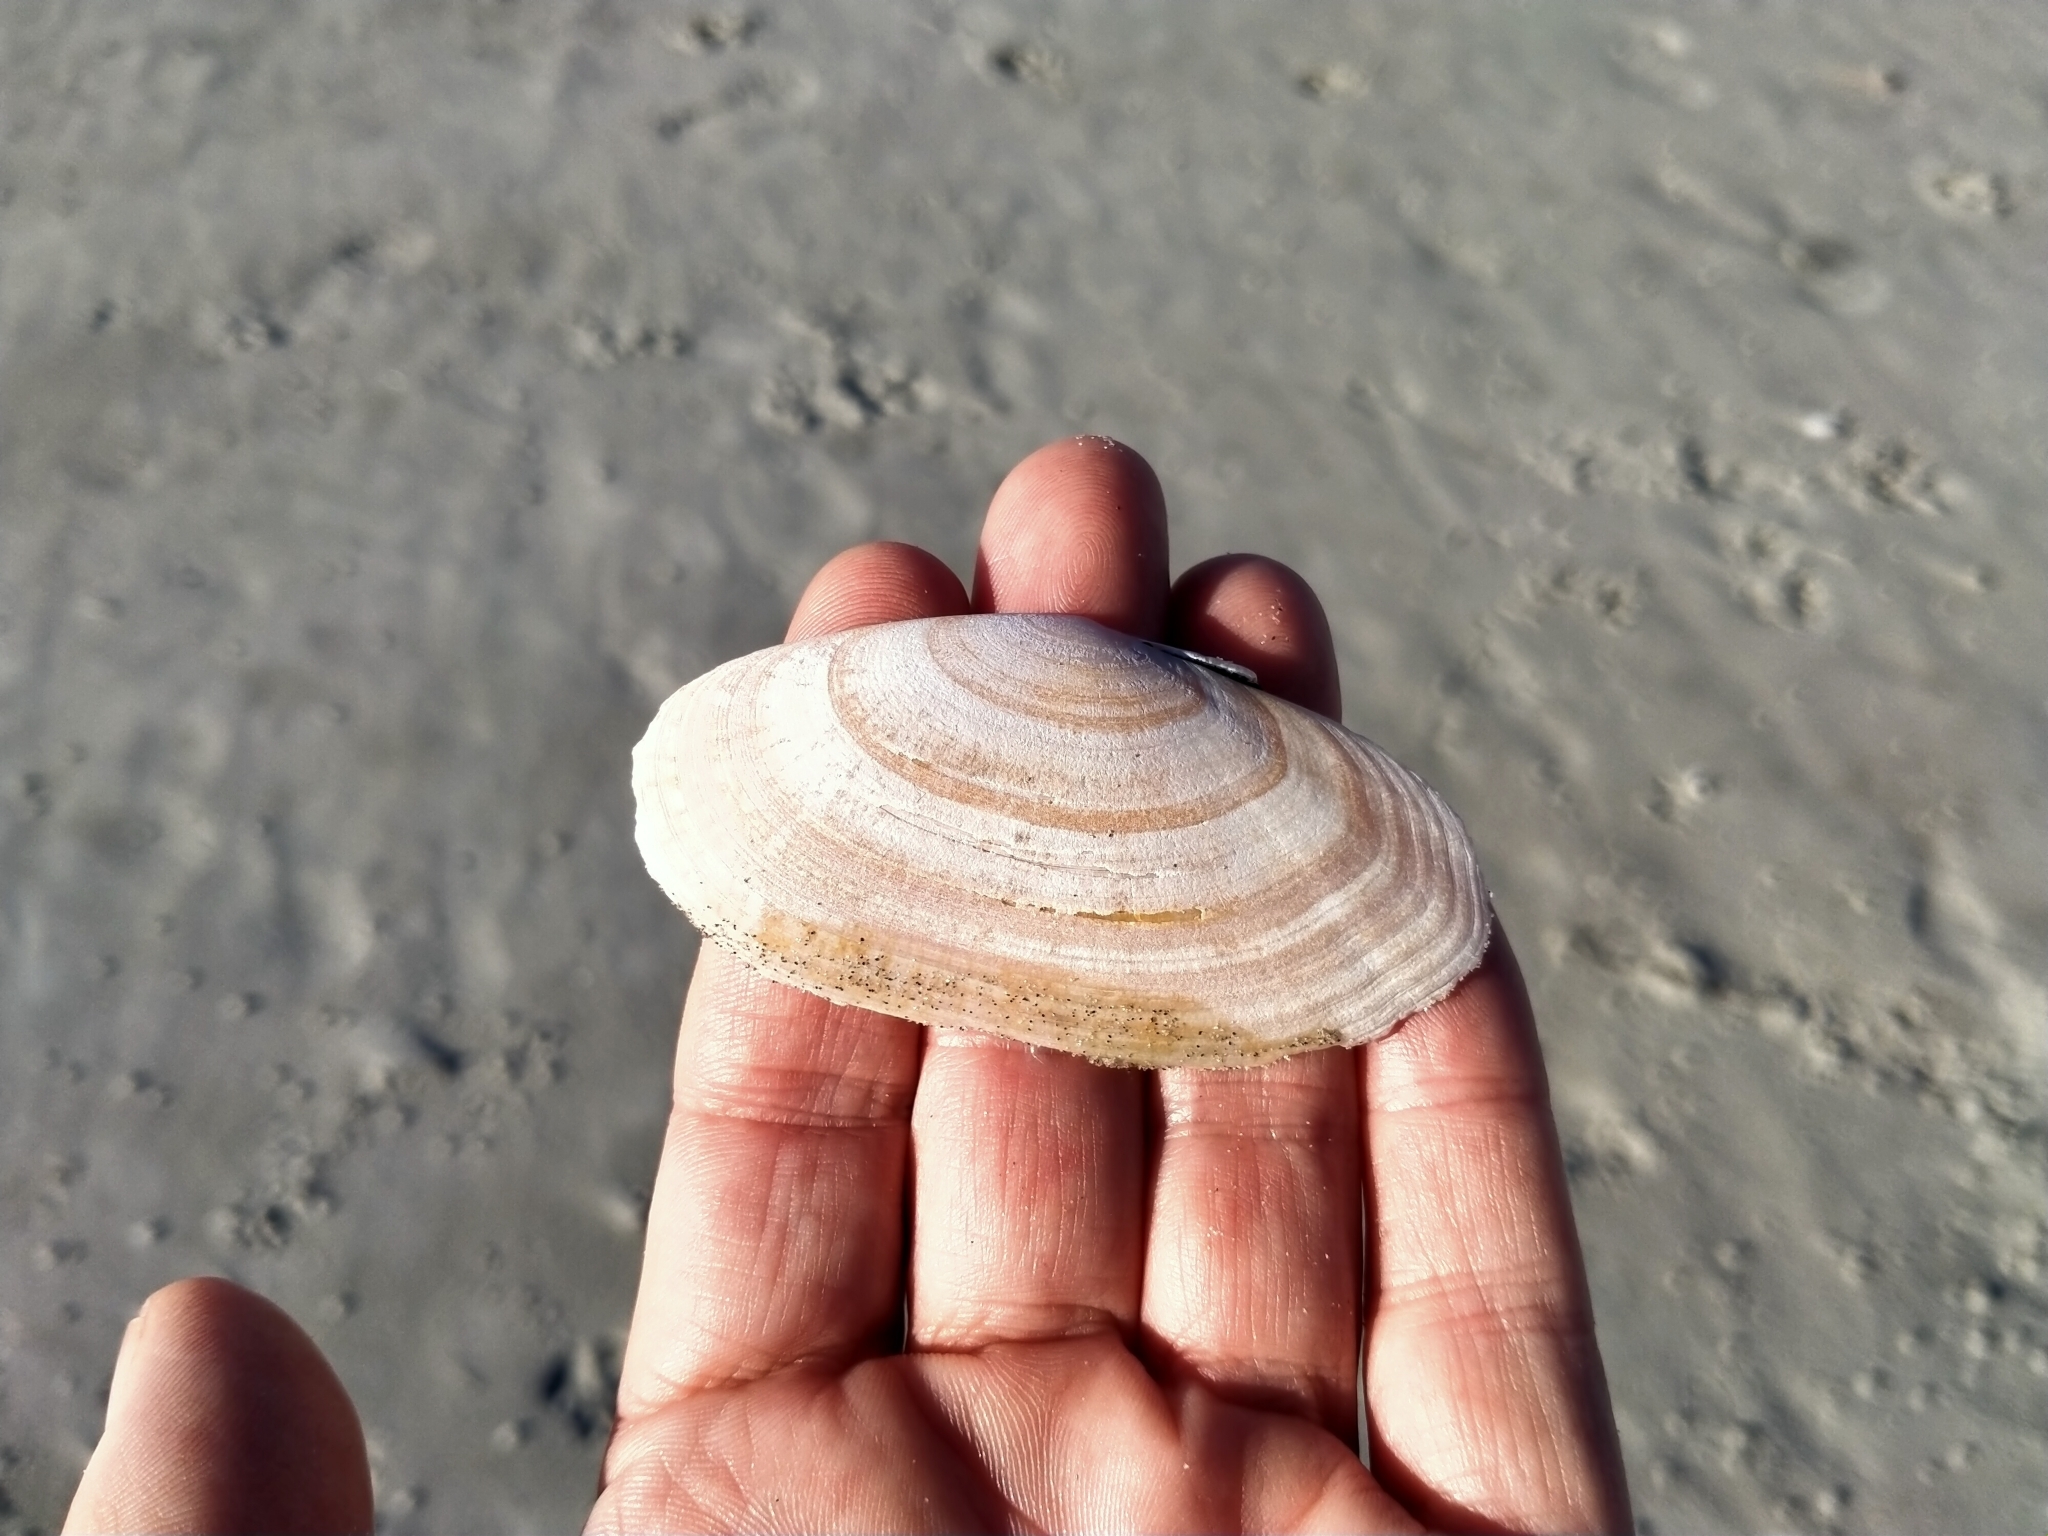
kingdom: Animalia
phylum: Mollusca
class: Bivalvia
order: Cardiida
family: Psammobiidae
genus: Gari
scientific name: Gari convexa
